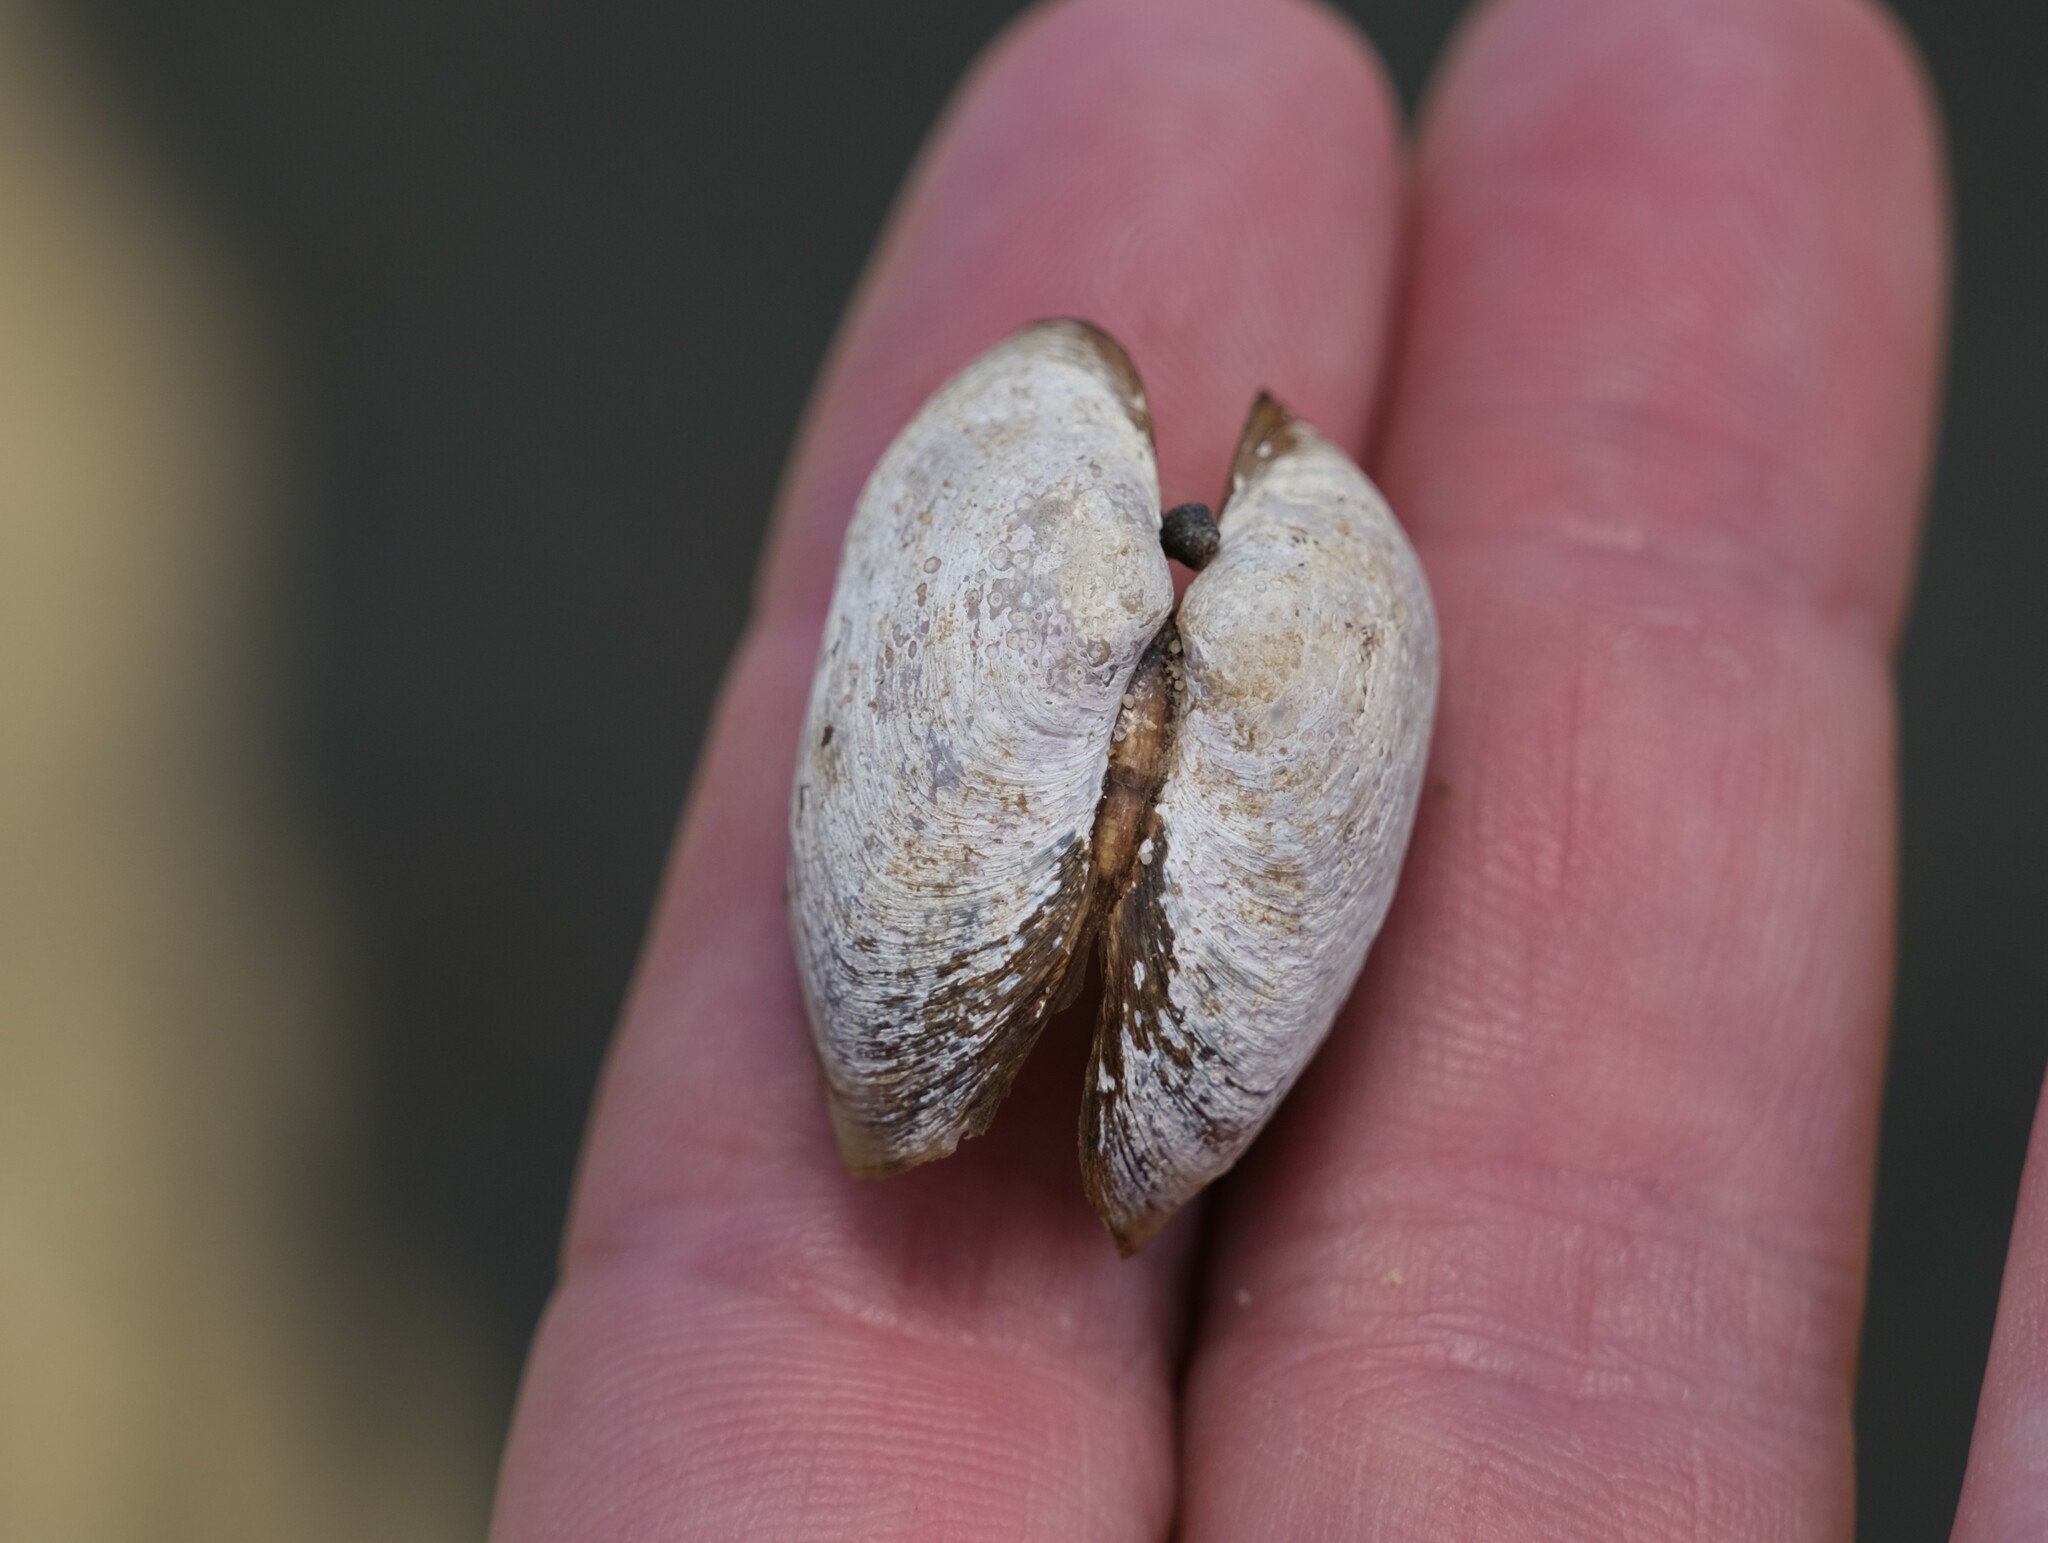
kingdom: Animalia
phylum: Mollusca
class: Bivalvia
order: Venerida
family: Glauconomidae
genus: Glauconome
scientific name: Glauconome radiata
